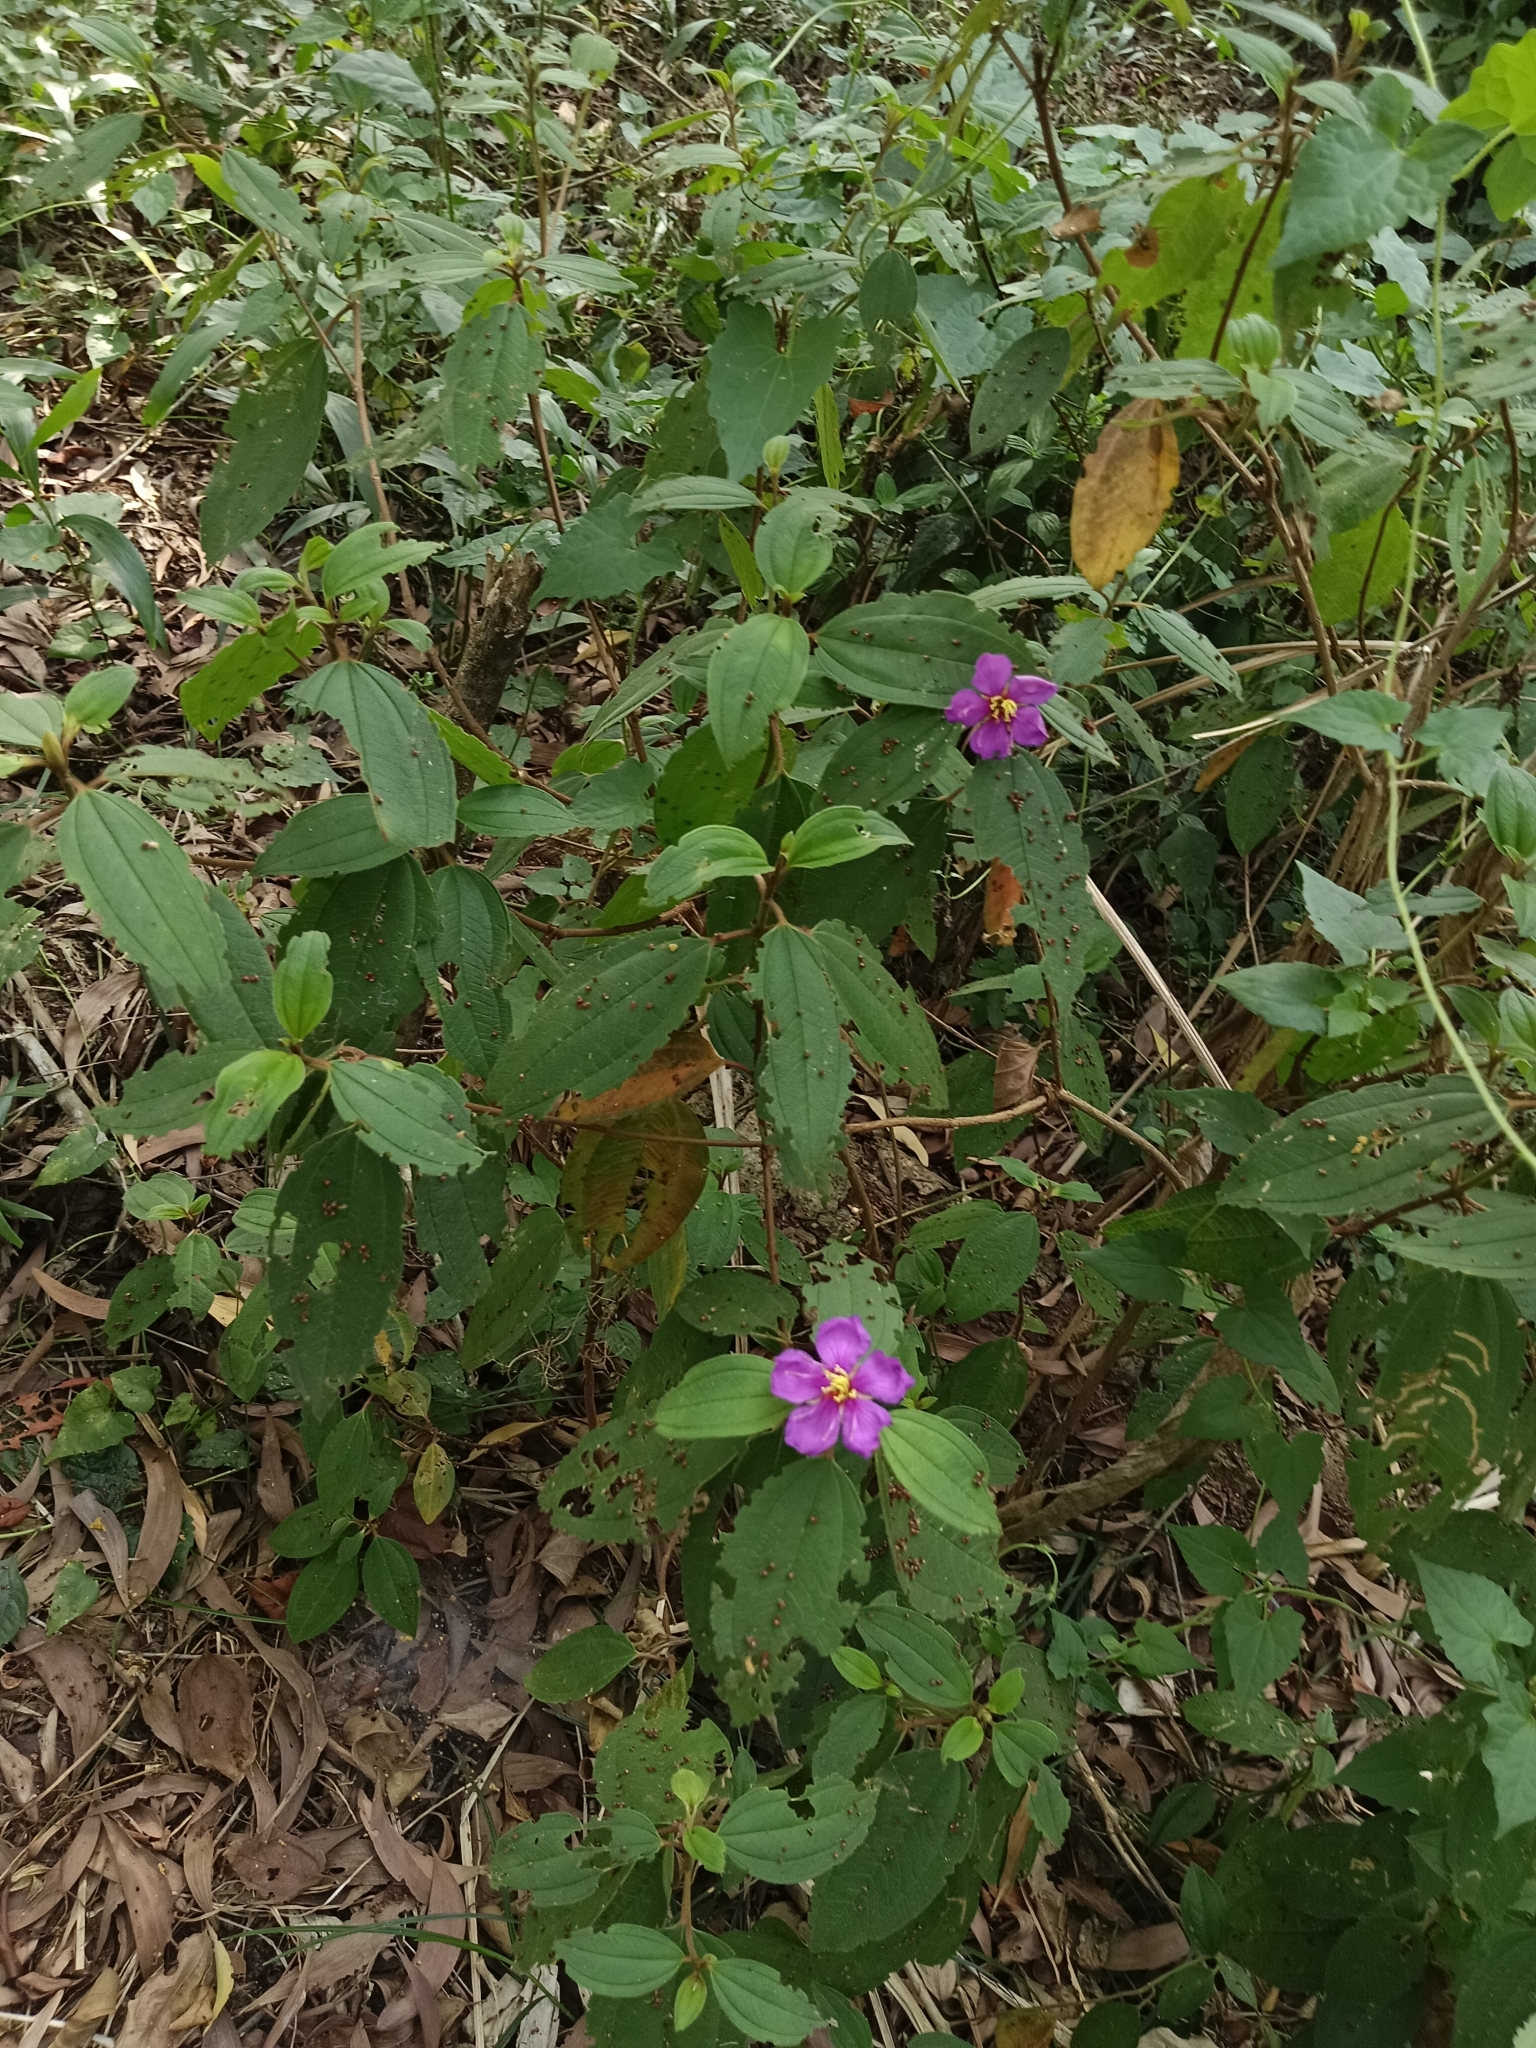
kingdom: Plantae
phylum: Tracheophyta
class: Magnoliopsida
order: Myrtales
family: Melastomataceae
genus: Melastoma
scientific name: Melastoma malabathricum
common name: Indian-rhododendron
